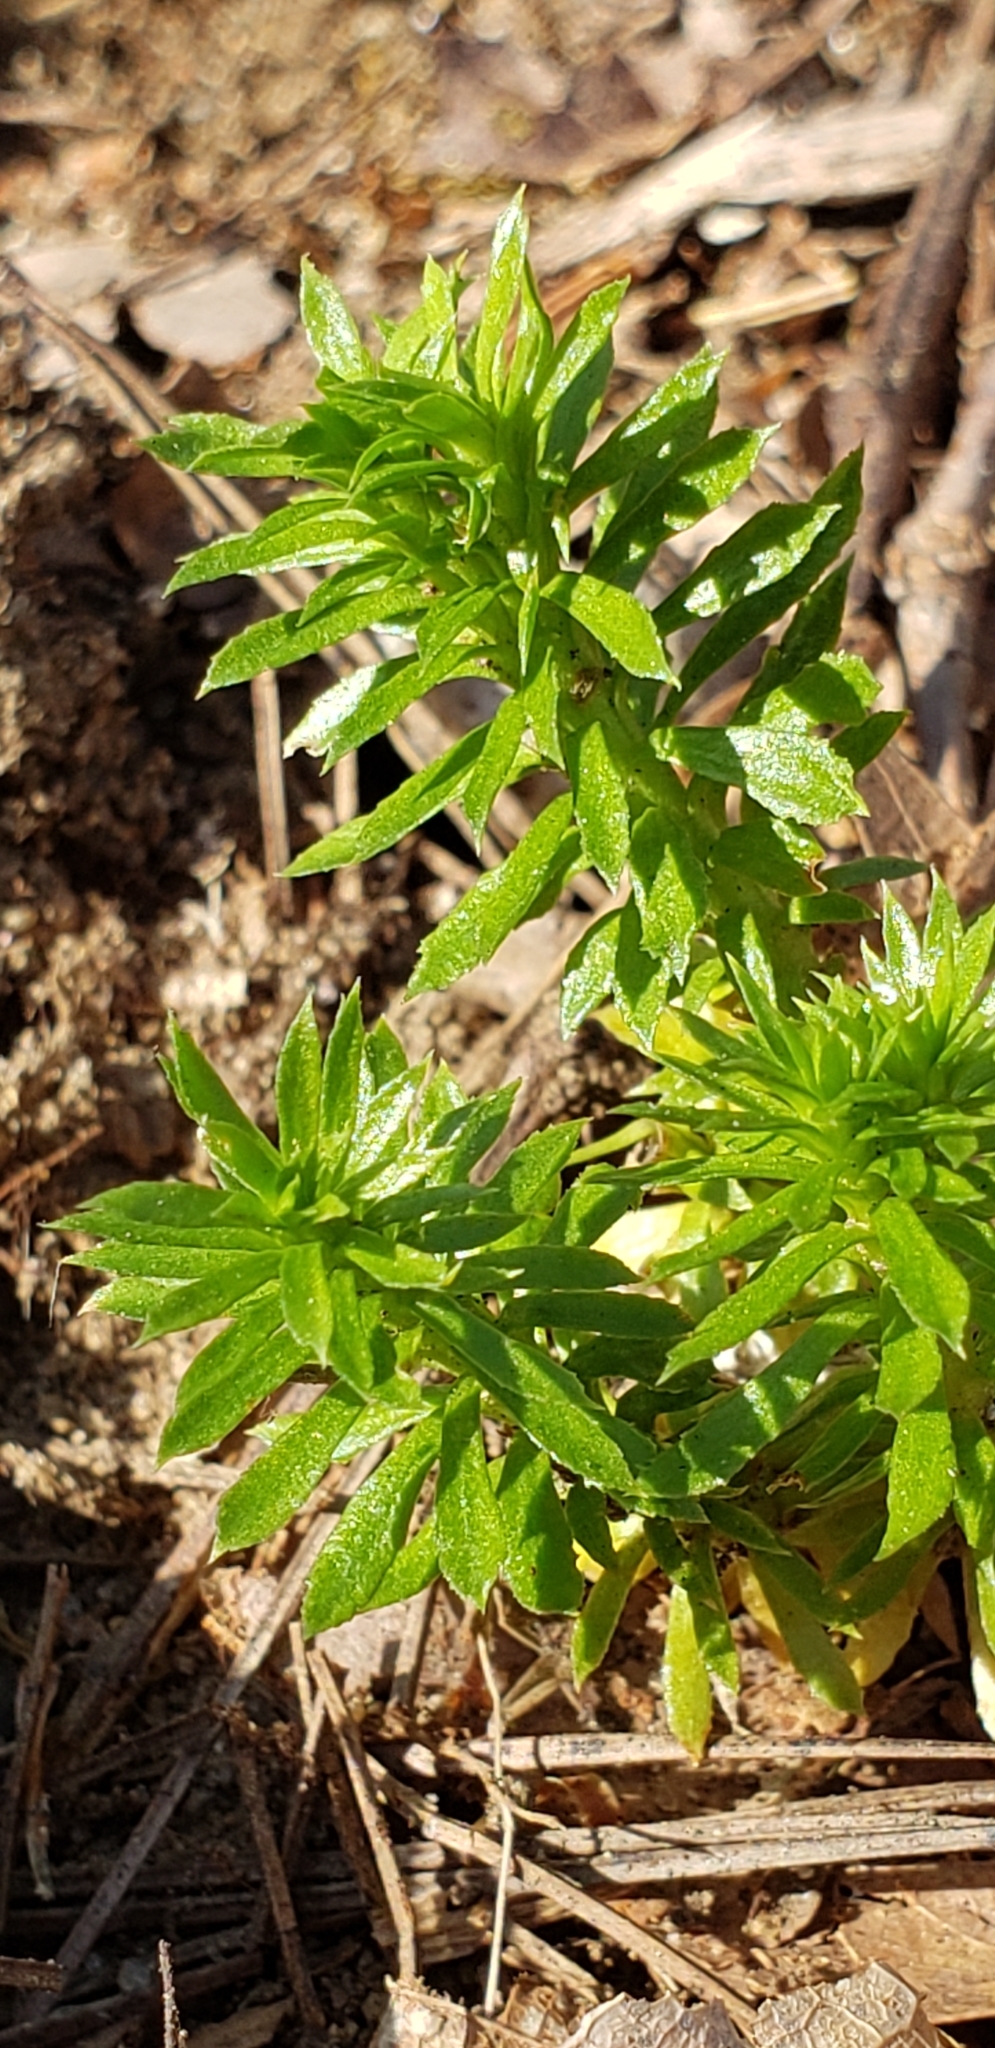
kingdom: Plantae
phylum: Tracheophyta
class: Lycopodiopsida
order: Lycopodiales
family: Lycopodiaceae
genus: Huperzia
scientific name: Huperzia lucidula
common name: Shining clubmoss
